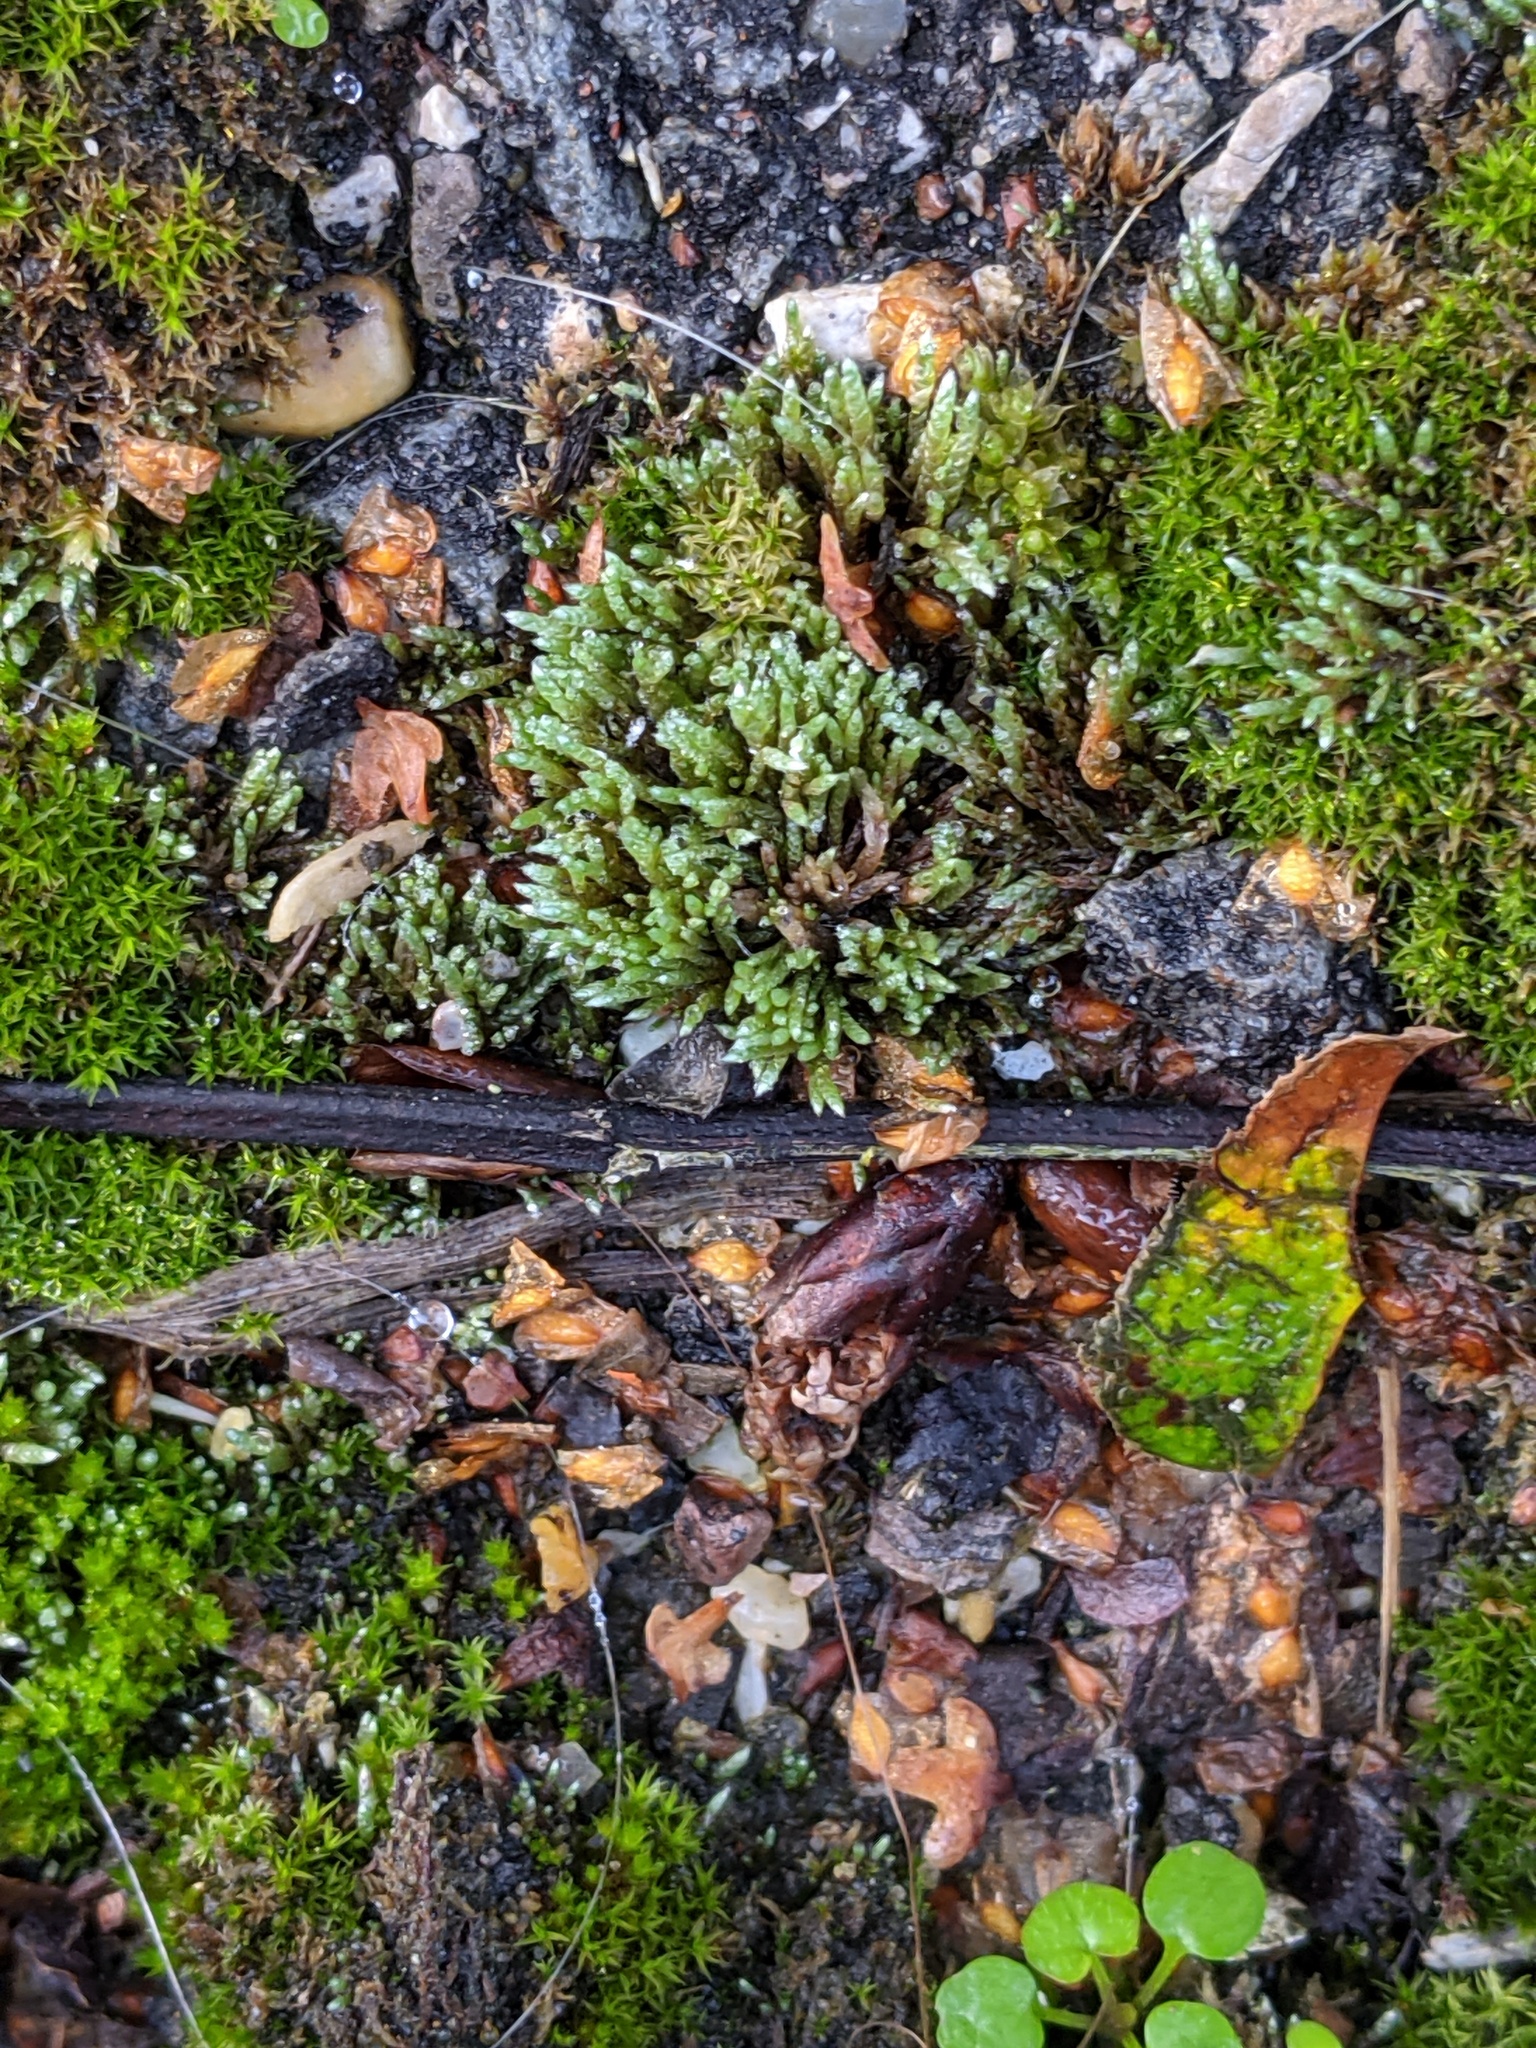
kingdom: Plantae
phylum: Bryophyta
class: Bryopsida
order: Bryales
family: Bryaceae
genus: Bryum
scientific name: Bryum argenteum
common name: Silver-moss
